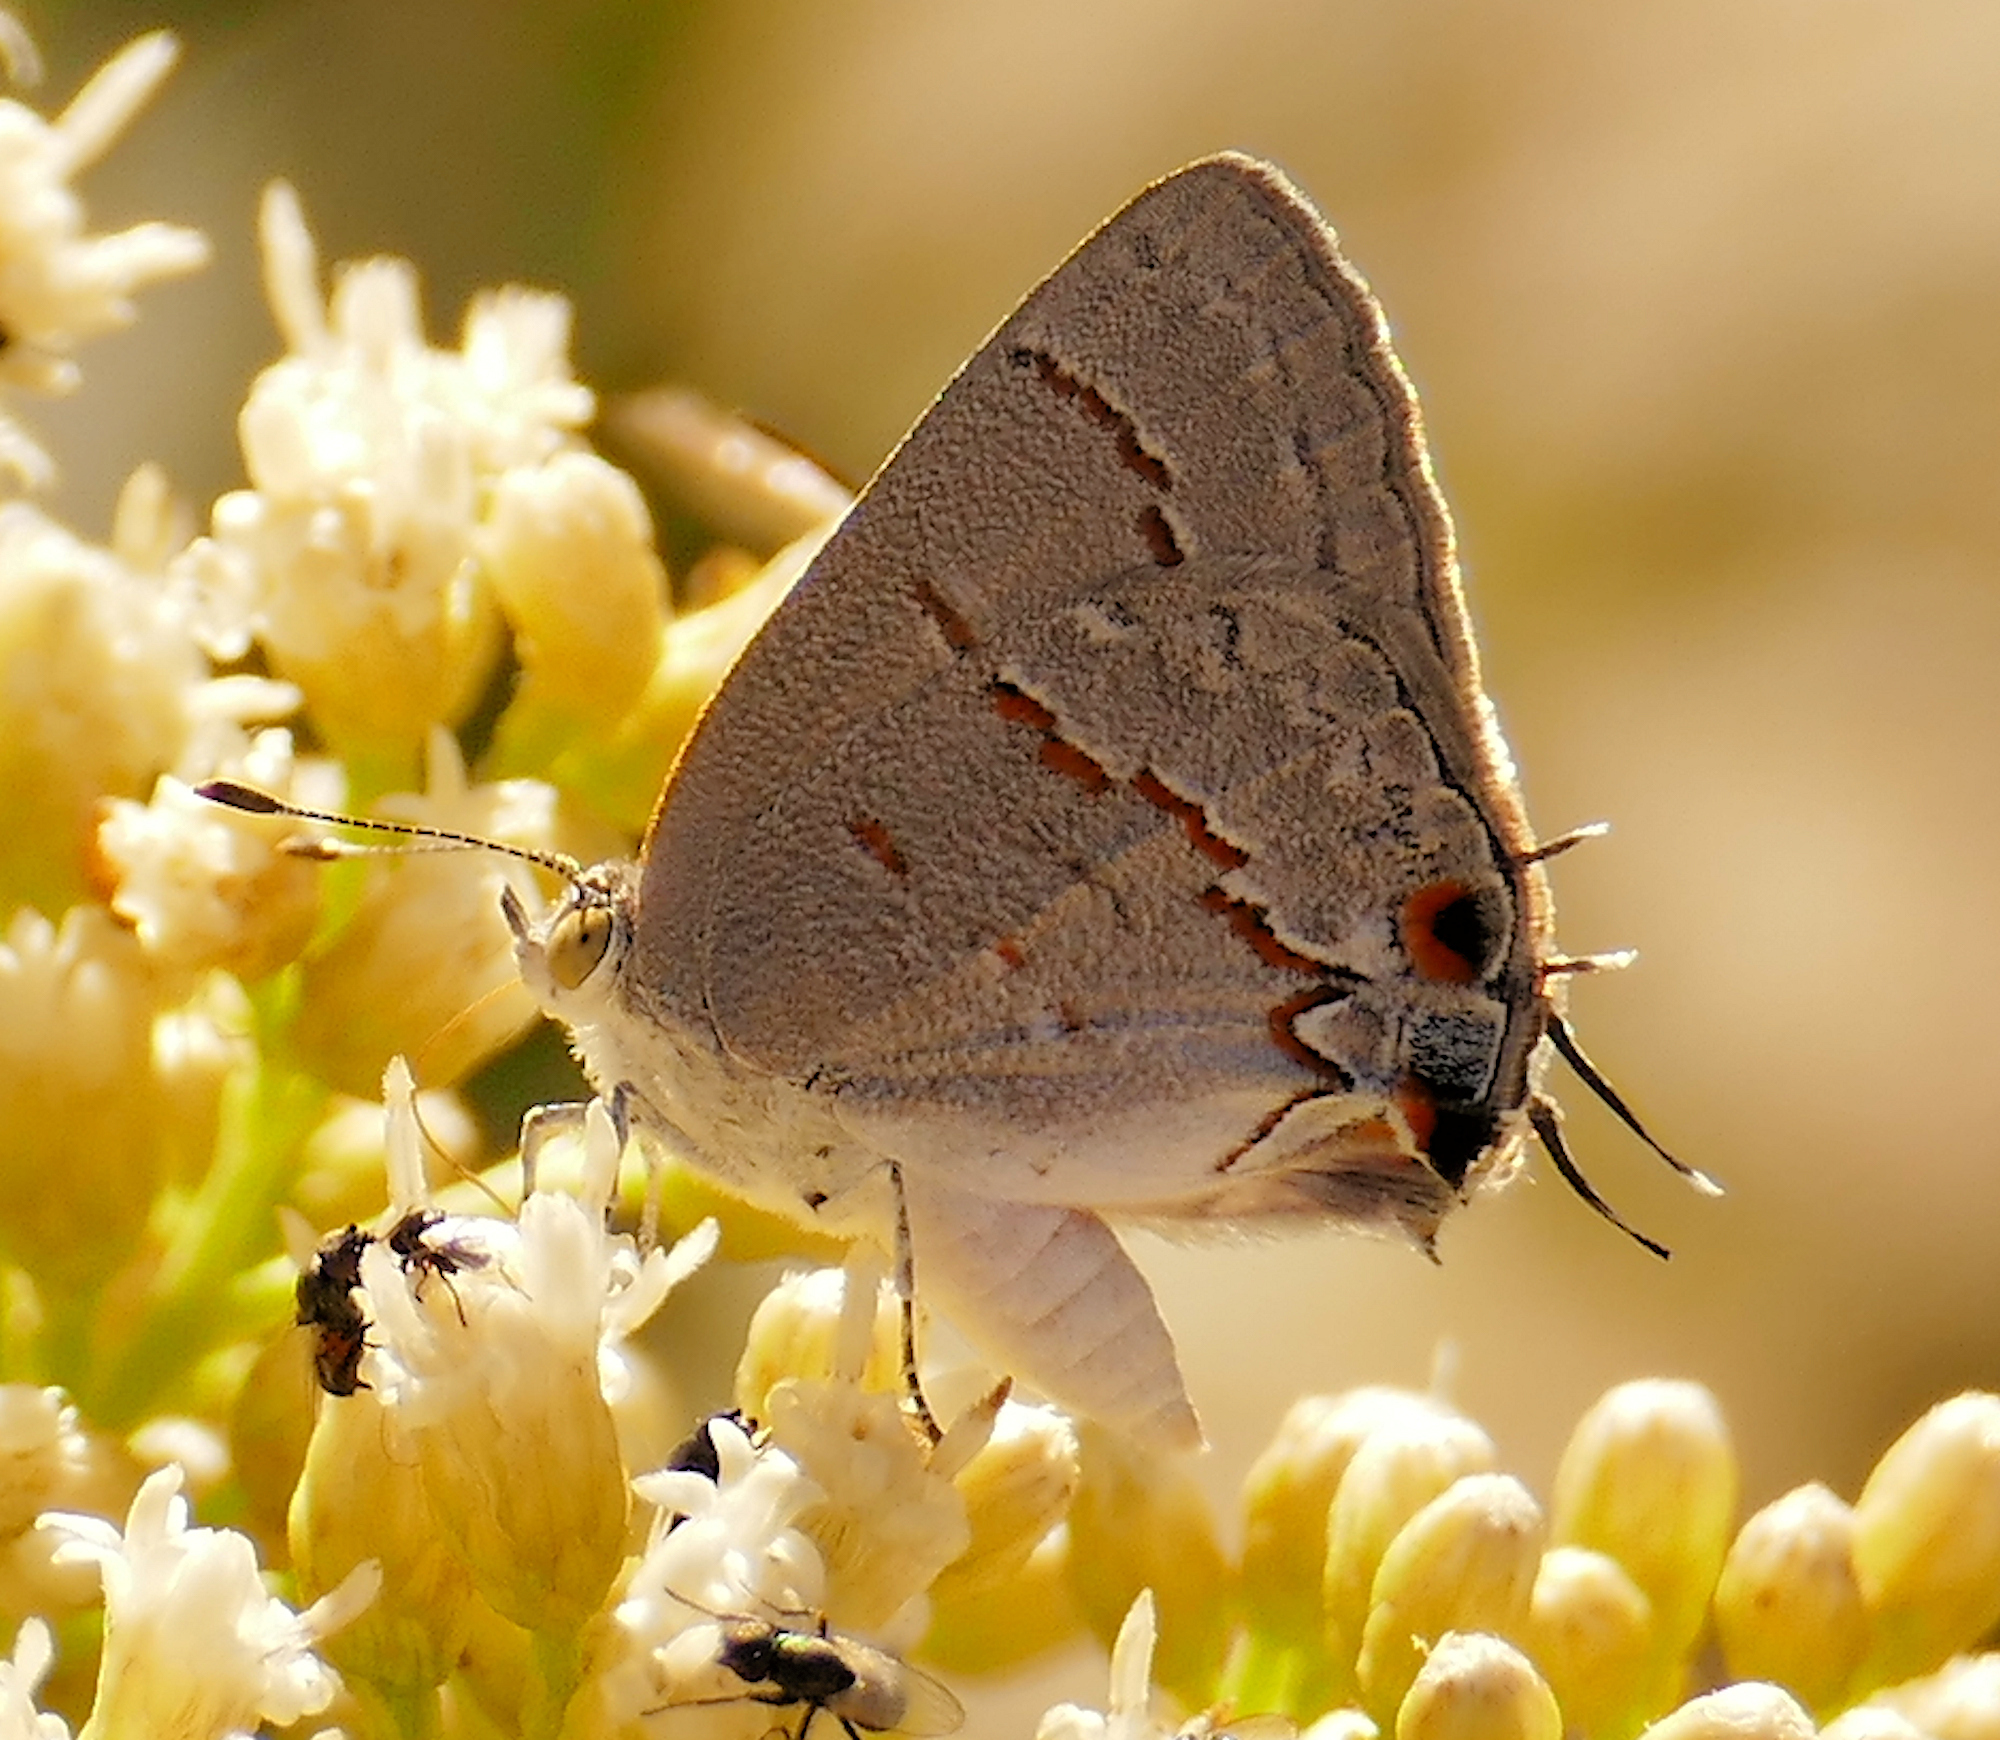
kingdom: Animalia
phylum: Arthropoda
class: Insecta
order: Lepidoptera
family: Lycaenidae
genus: Ministrymon
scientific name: Ministrymon leda
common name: Leda ministreak
